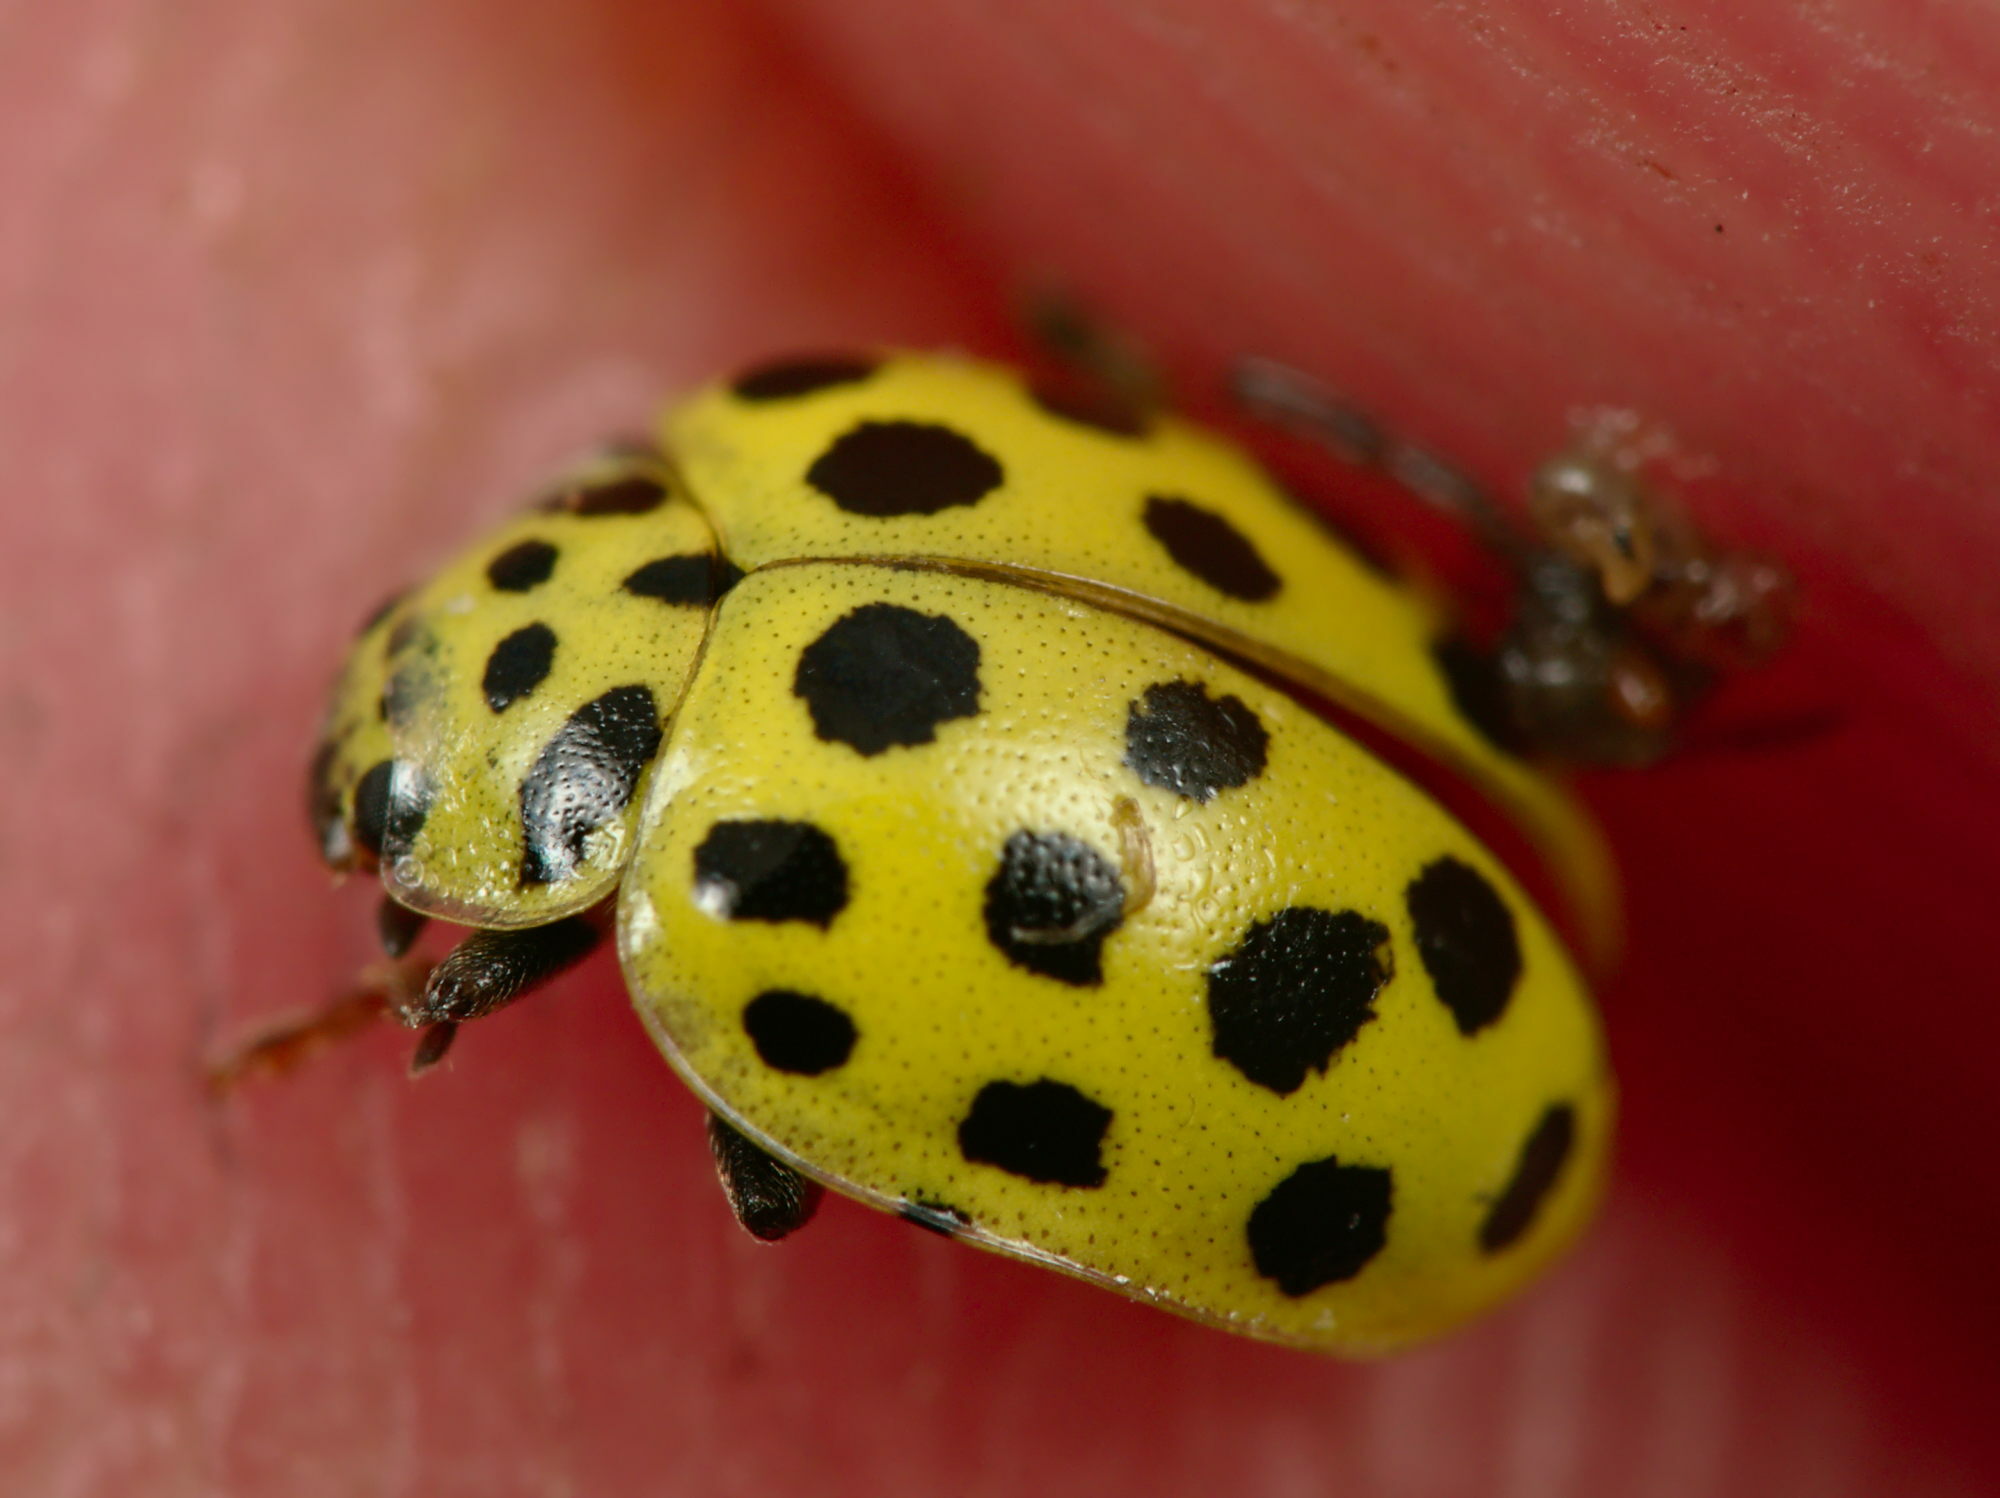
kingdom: Animalia
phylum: Arthropoda
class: Insecta
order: Coleoptera
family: Coccinellidae
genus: Psyllobora
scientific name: Psyllobora vigintiduopunctata
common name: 22-spot ladybird
